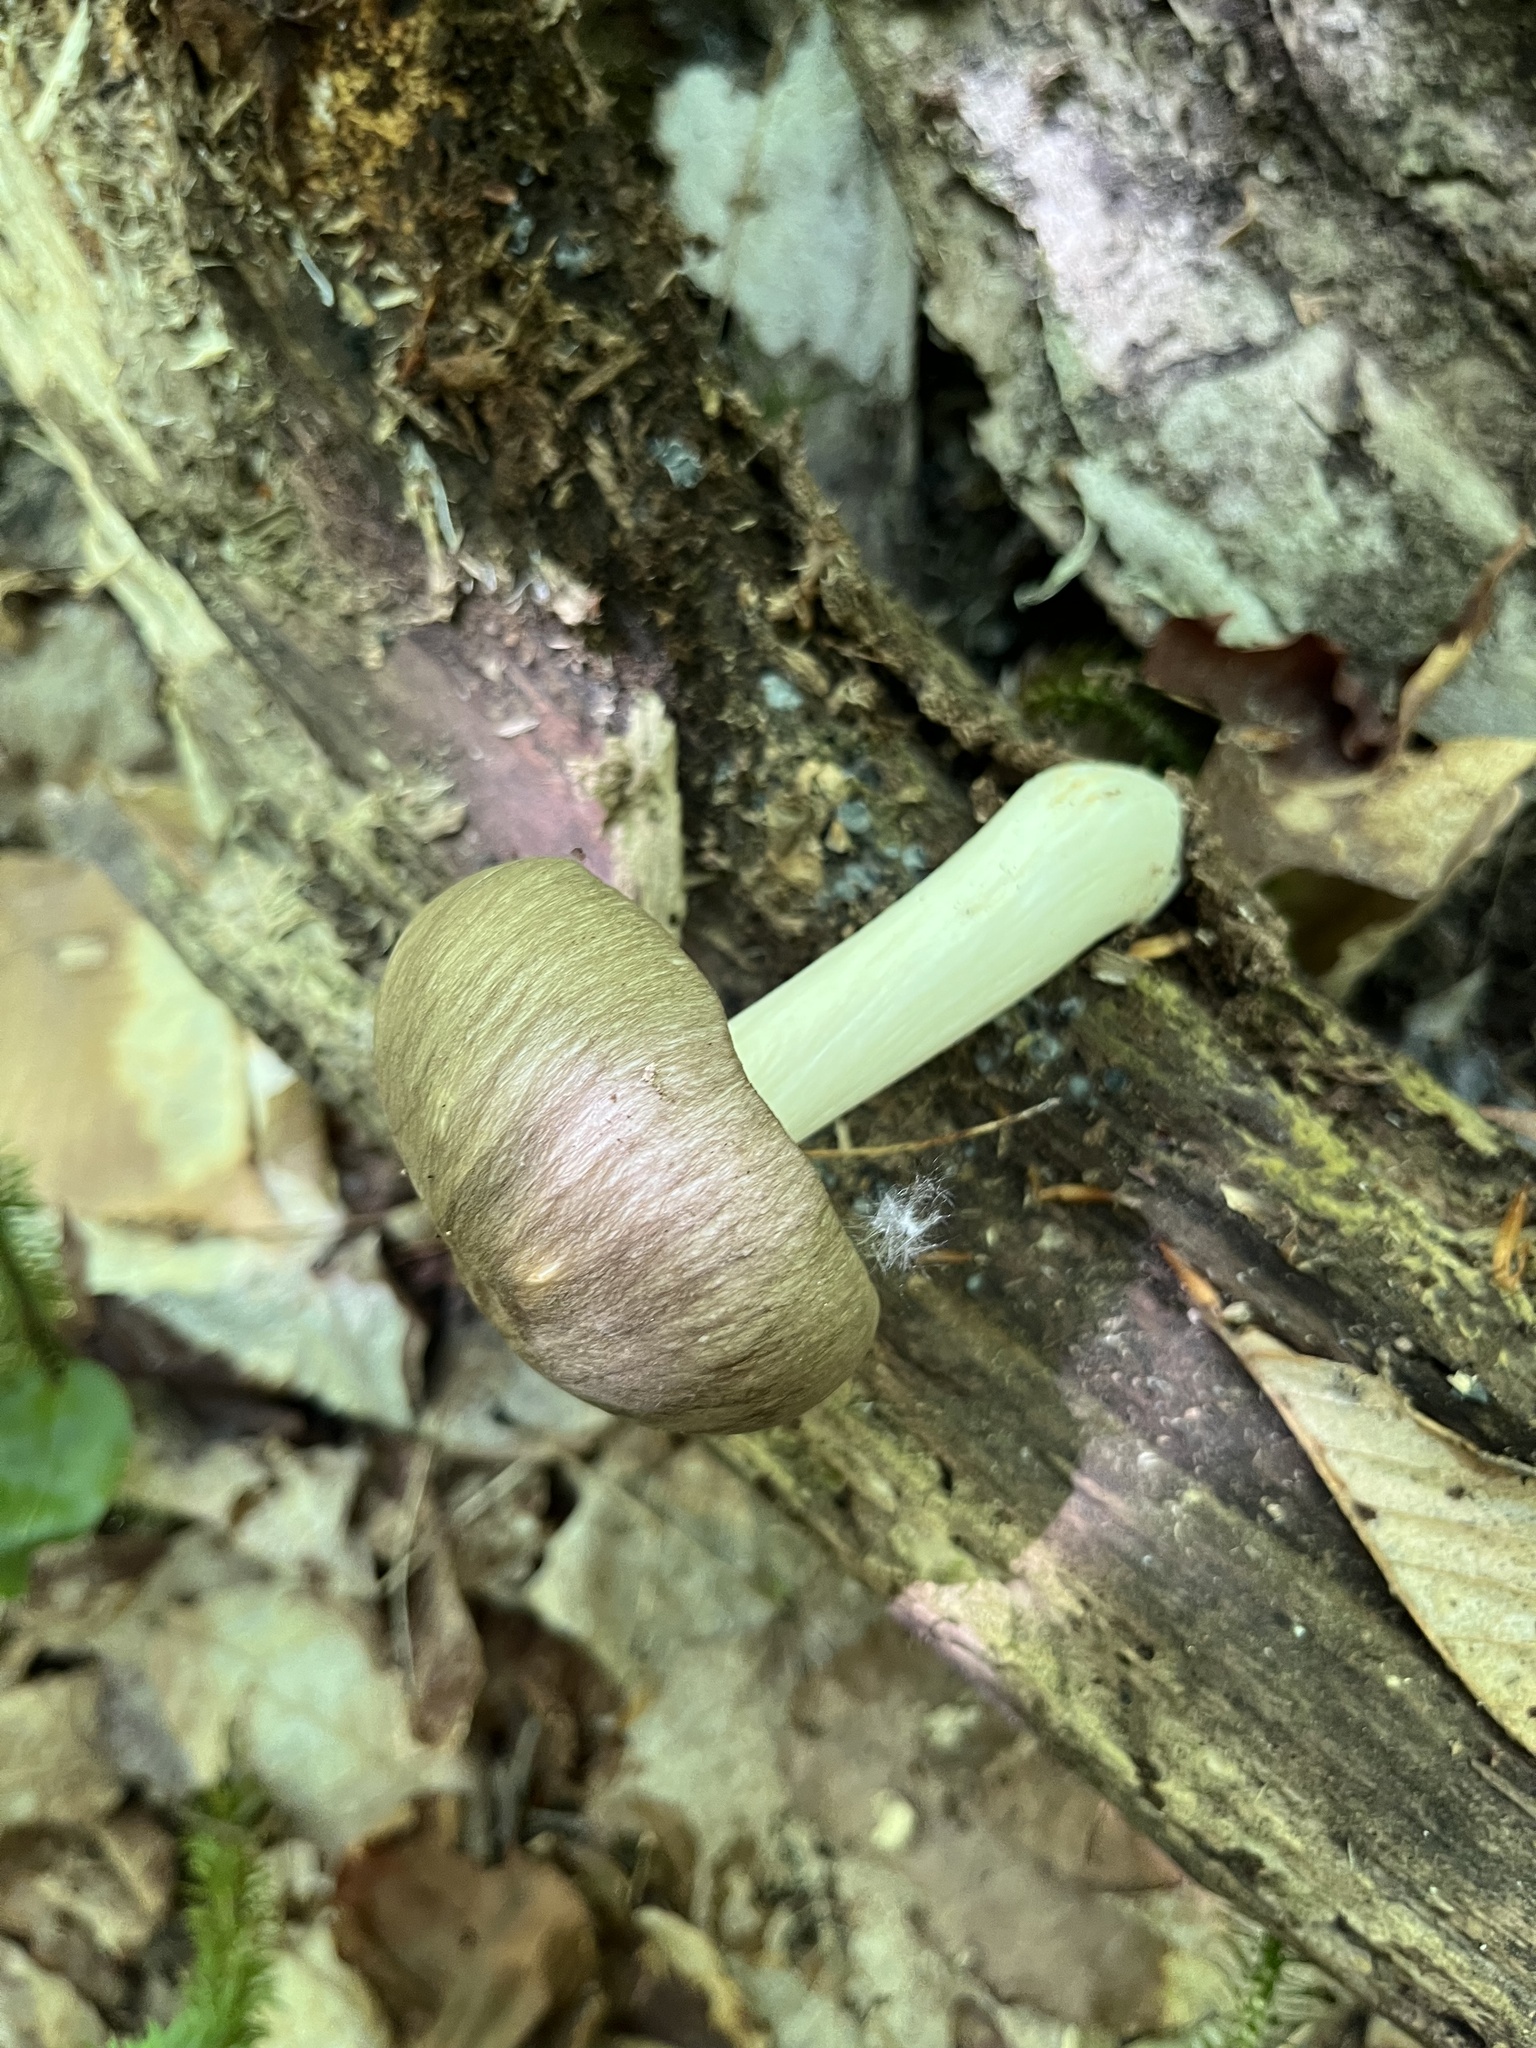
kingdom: Fungi
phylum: Basidiomycota
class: Agaricomycetes
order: Agaricales
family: Tricholomataceae
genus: Megacollybia
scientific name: Megacollybia rodmanii
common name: Eastern american platterful mushroom
